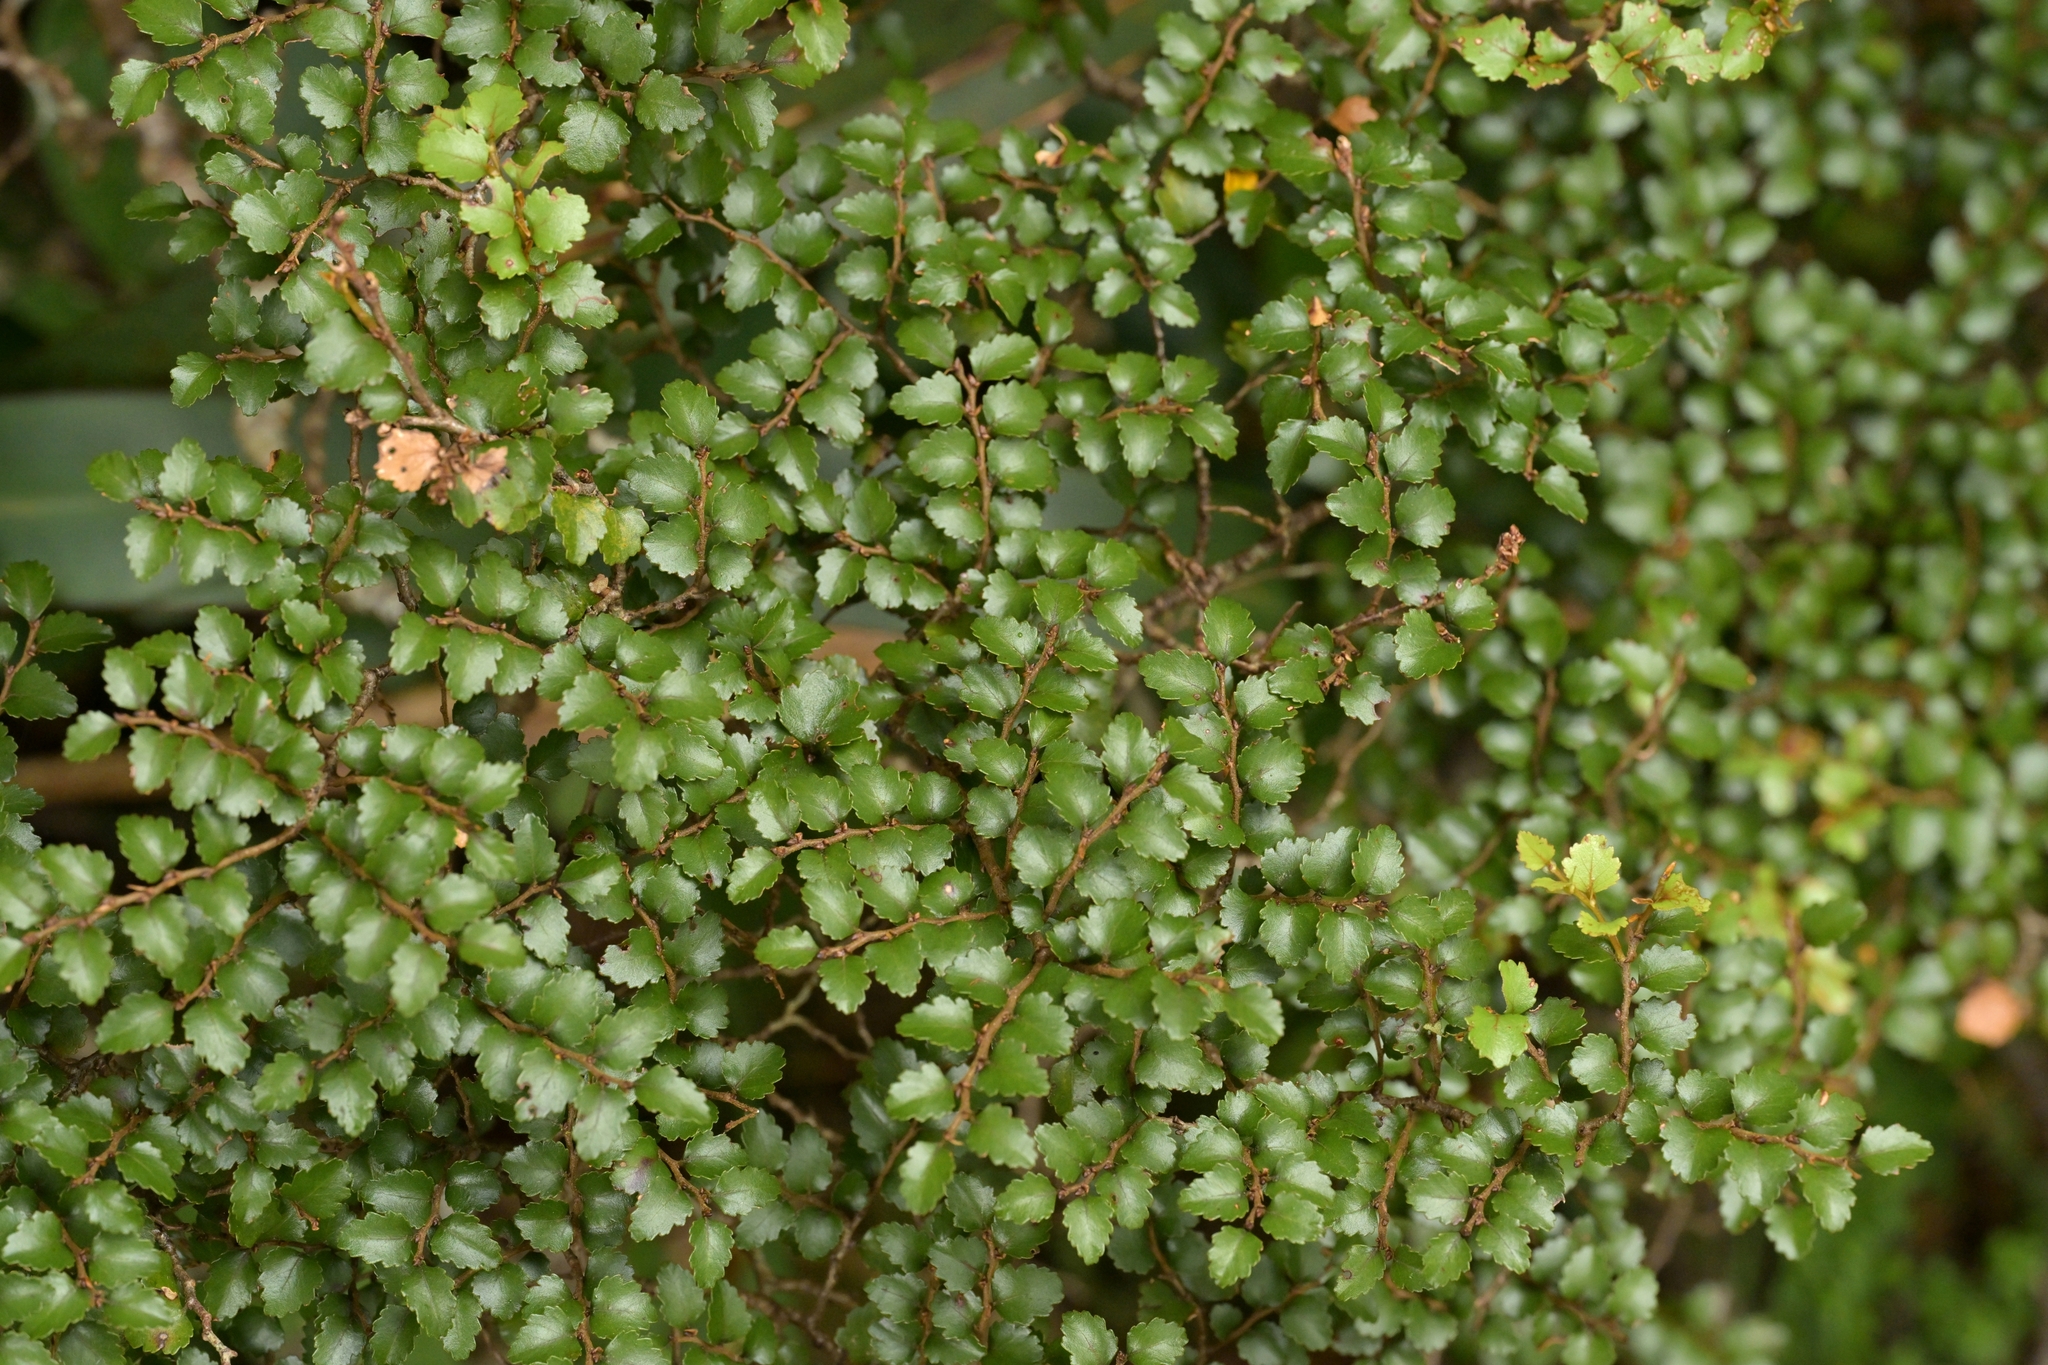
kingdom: Plantae
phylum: Tracheophyta
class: Magnoliopsida
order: Fagales
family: Nothofagaceae
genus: Nothofagus
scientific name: Nothofagus menziesii
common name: Silver beech
